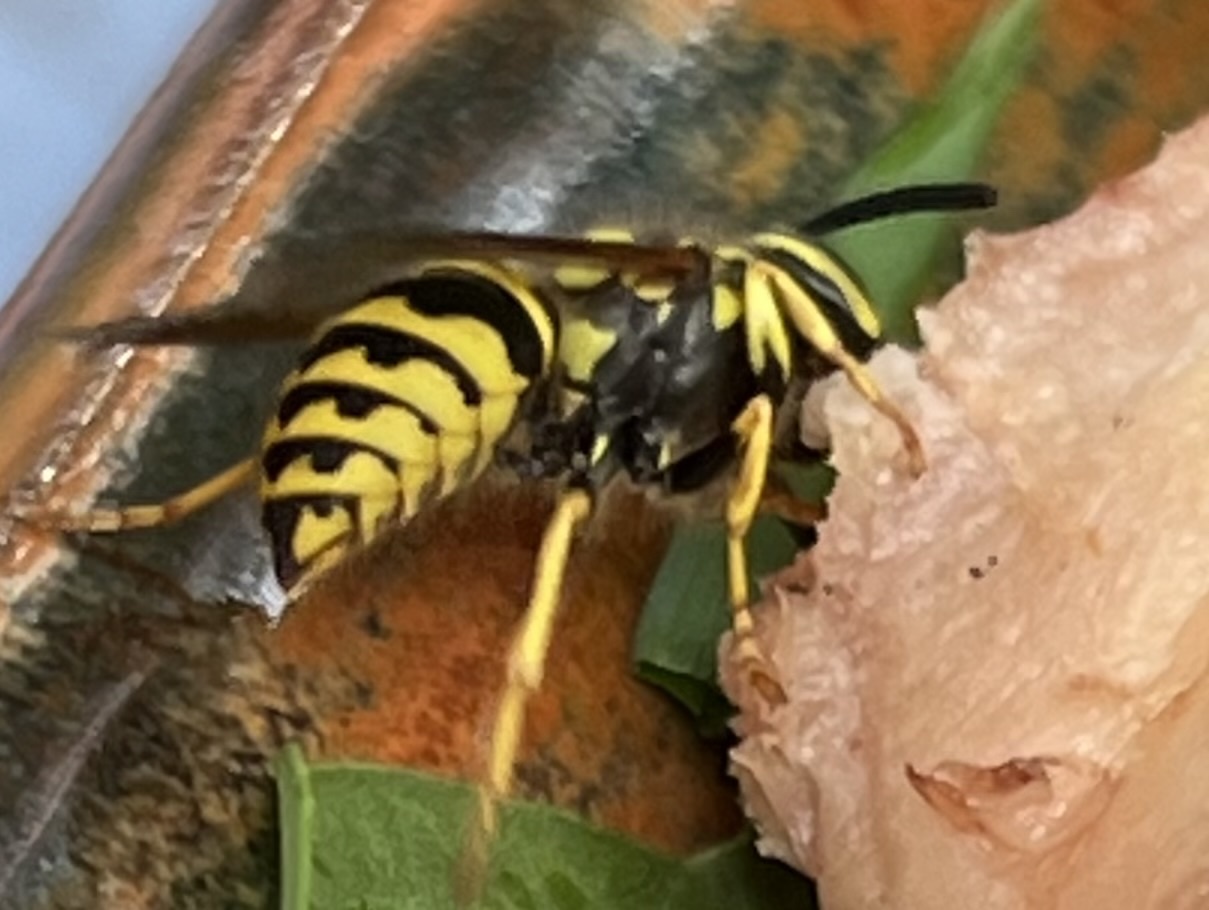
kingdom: Animalia
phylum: Arthropoda
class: Insecta
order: Hymenoptera
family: Vespidae
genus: Vespula
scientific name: Vespula
